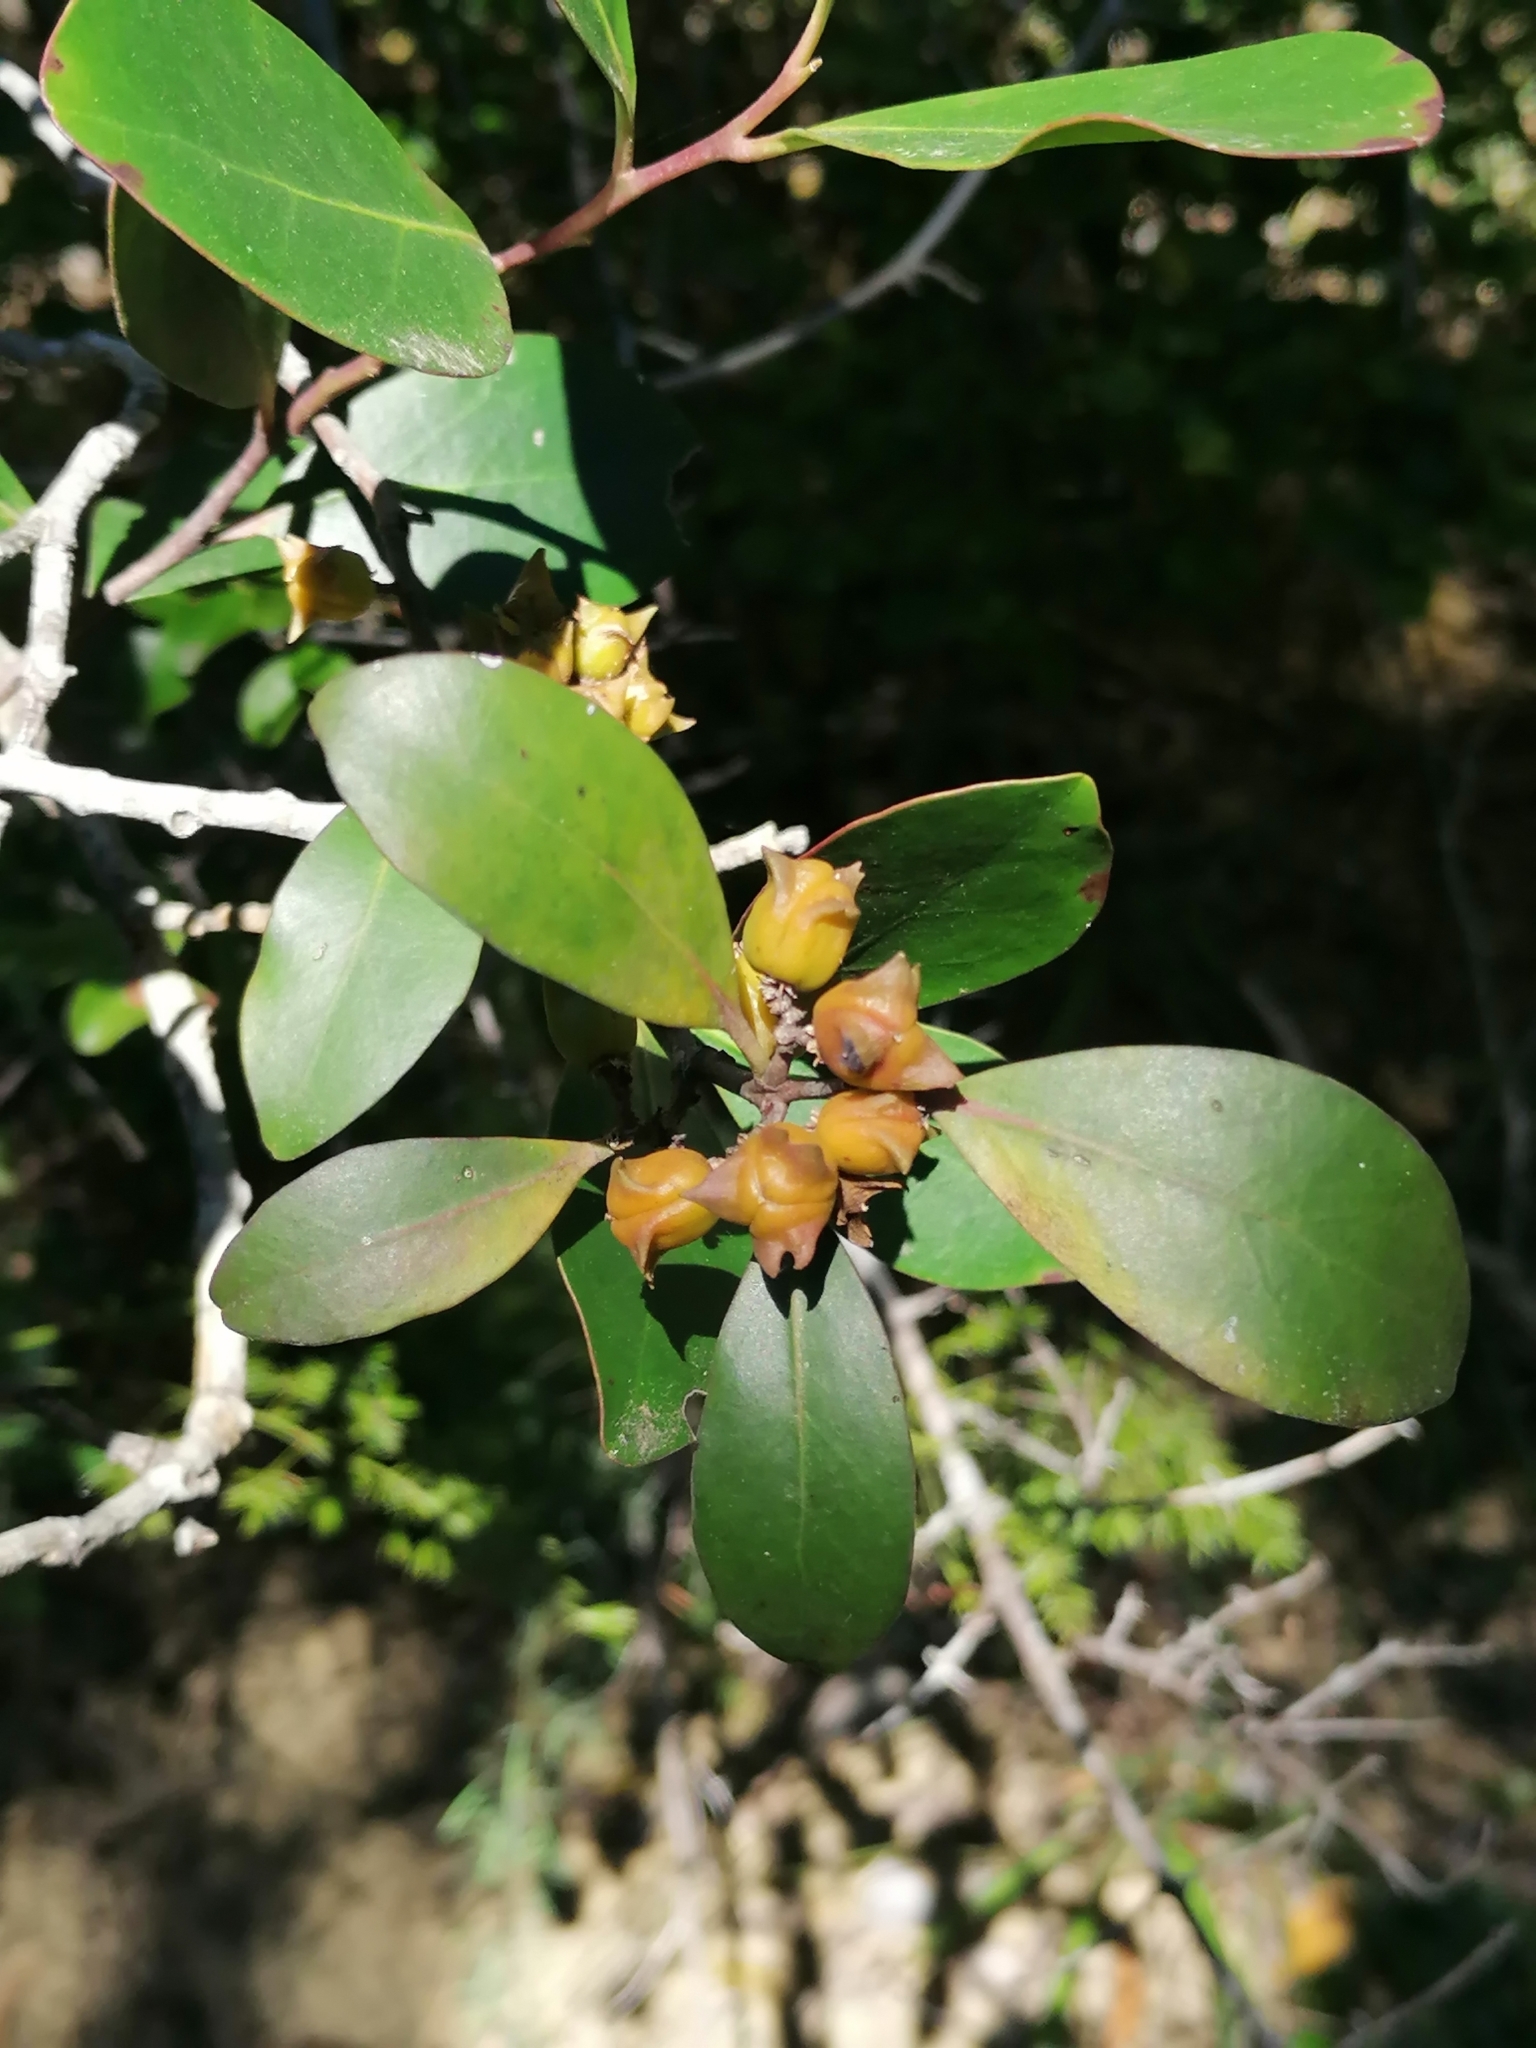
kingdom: Plantae
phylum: Tracheophyta
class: Magnoliopsida
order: Celastrales
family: Celastraceae
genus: Pterocelastrus
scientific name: Pterocelastrus tricuspidatus
